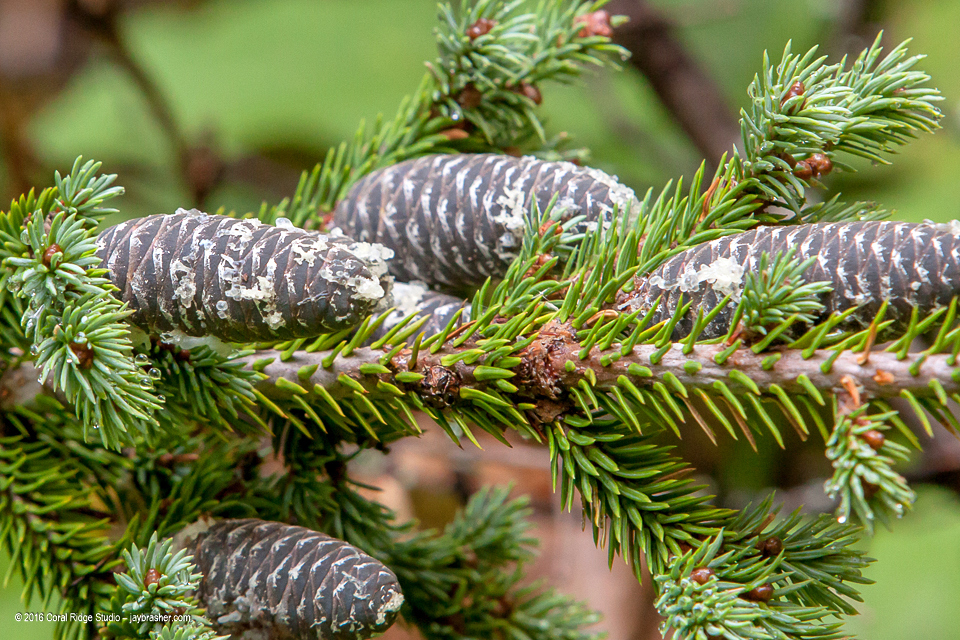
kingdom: Plantae
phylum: Tracheophyta
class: Pinopsida
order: Pinales
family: Pinaceae
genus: Abies
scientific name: Abies balsamea
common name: Balsam fir
